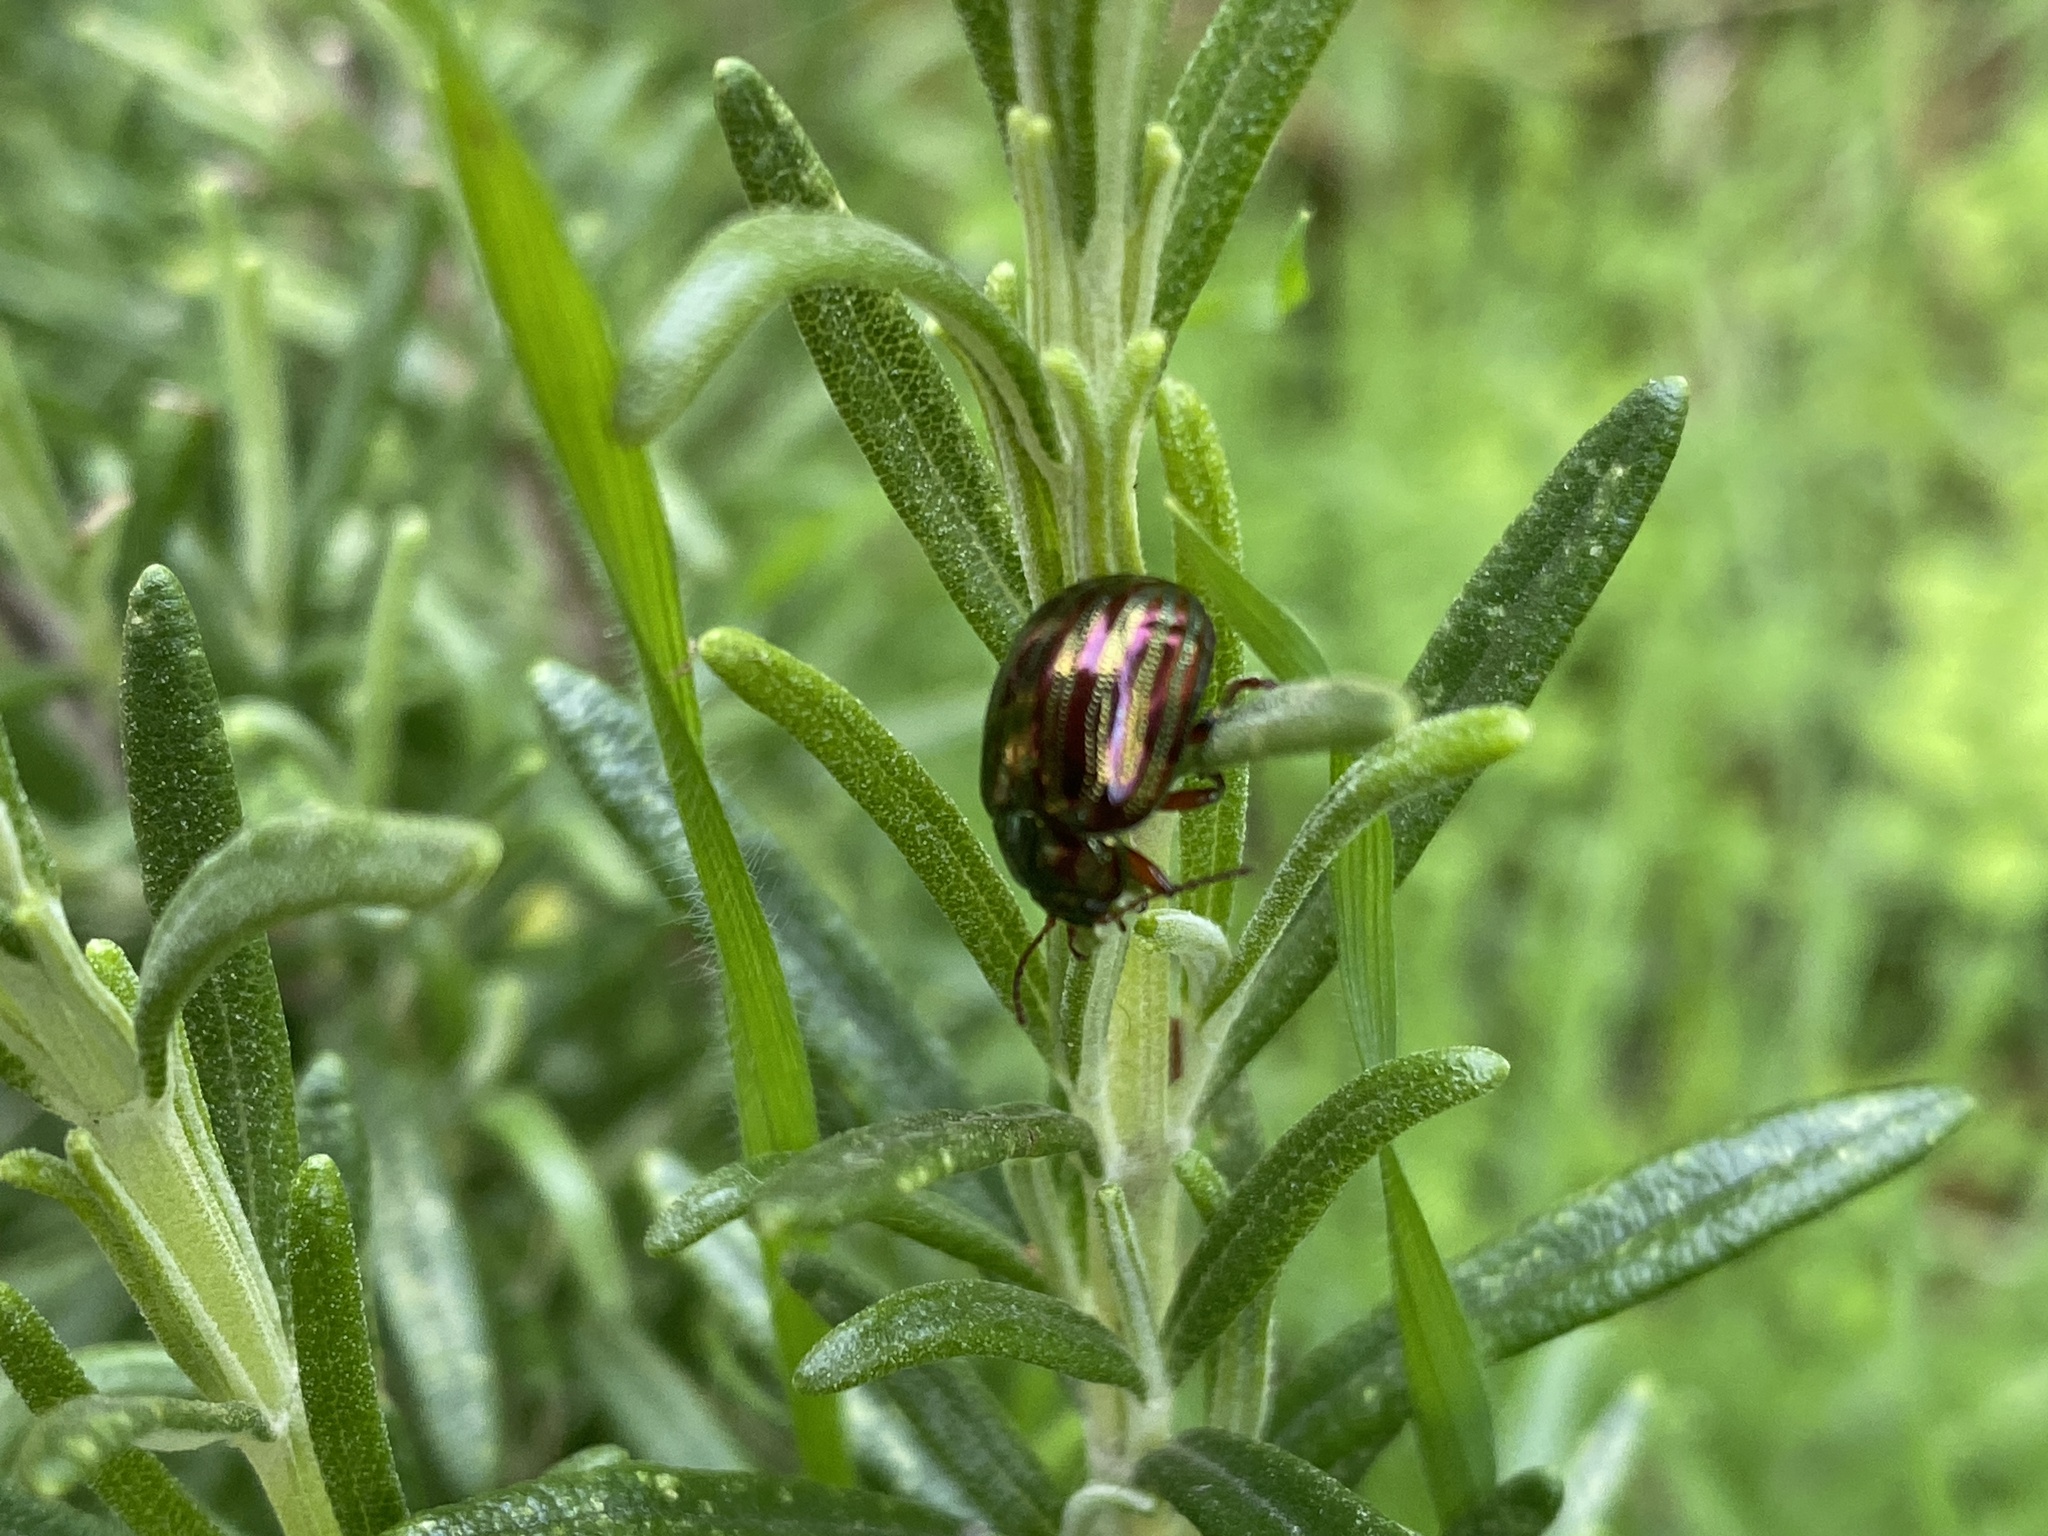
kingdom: Animalia
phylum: Arthropoda
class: Insecta
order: Coleoptera
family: Chrysomelidae
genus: Chrysolina
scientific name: Chrysolina americana
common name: Rosemary beetle
